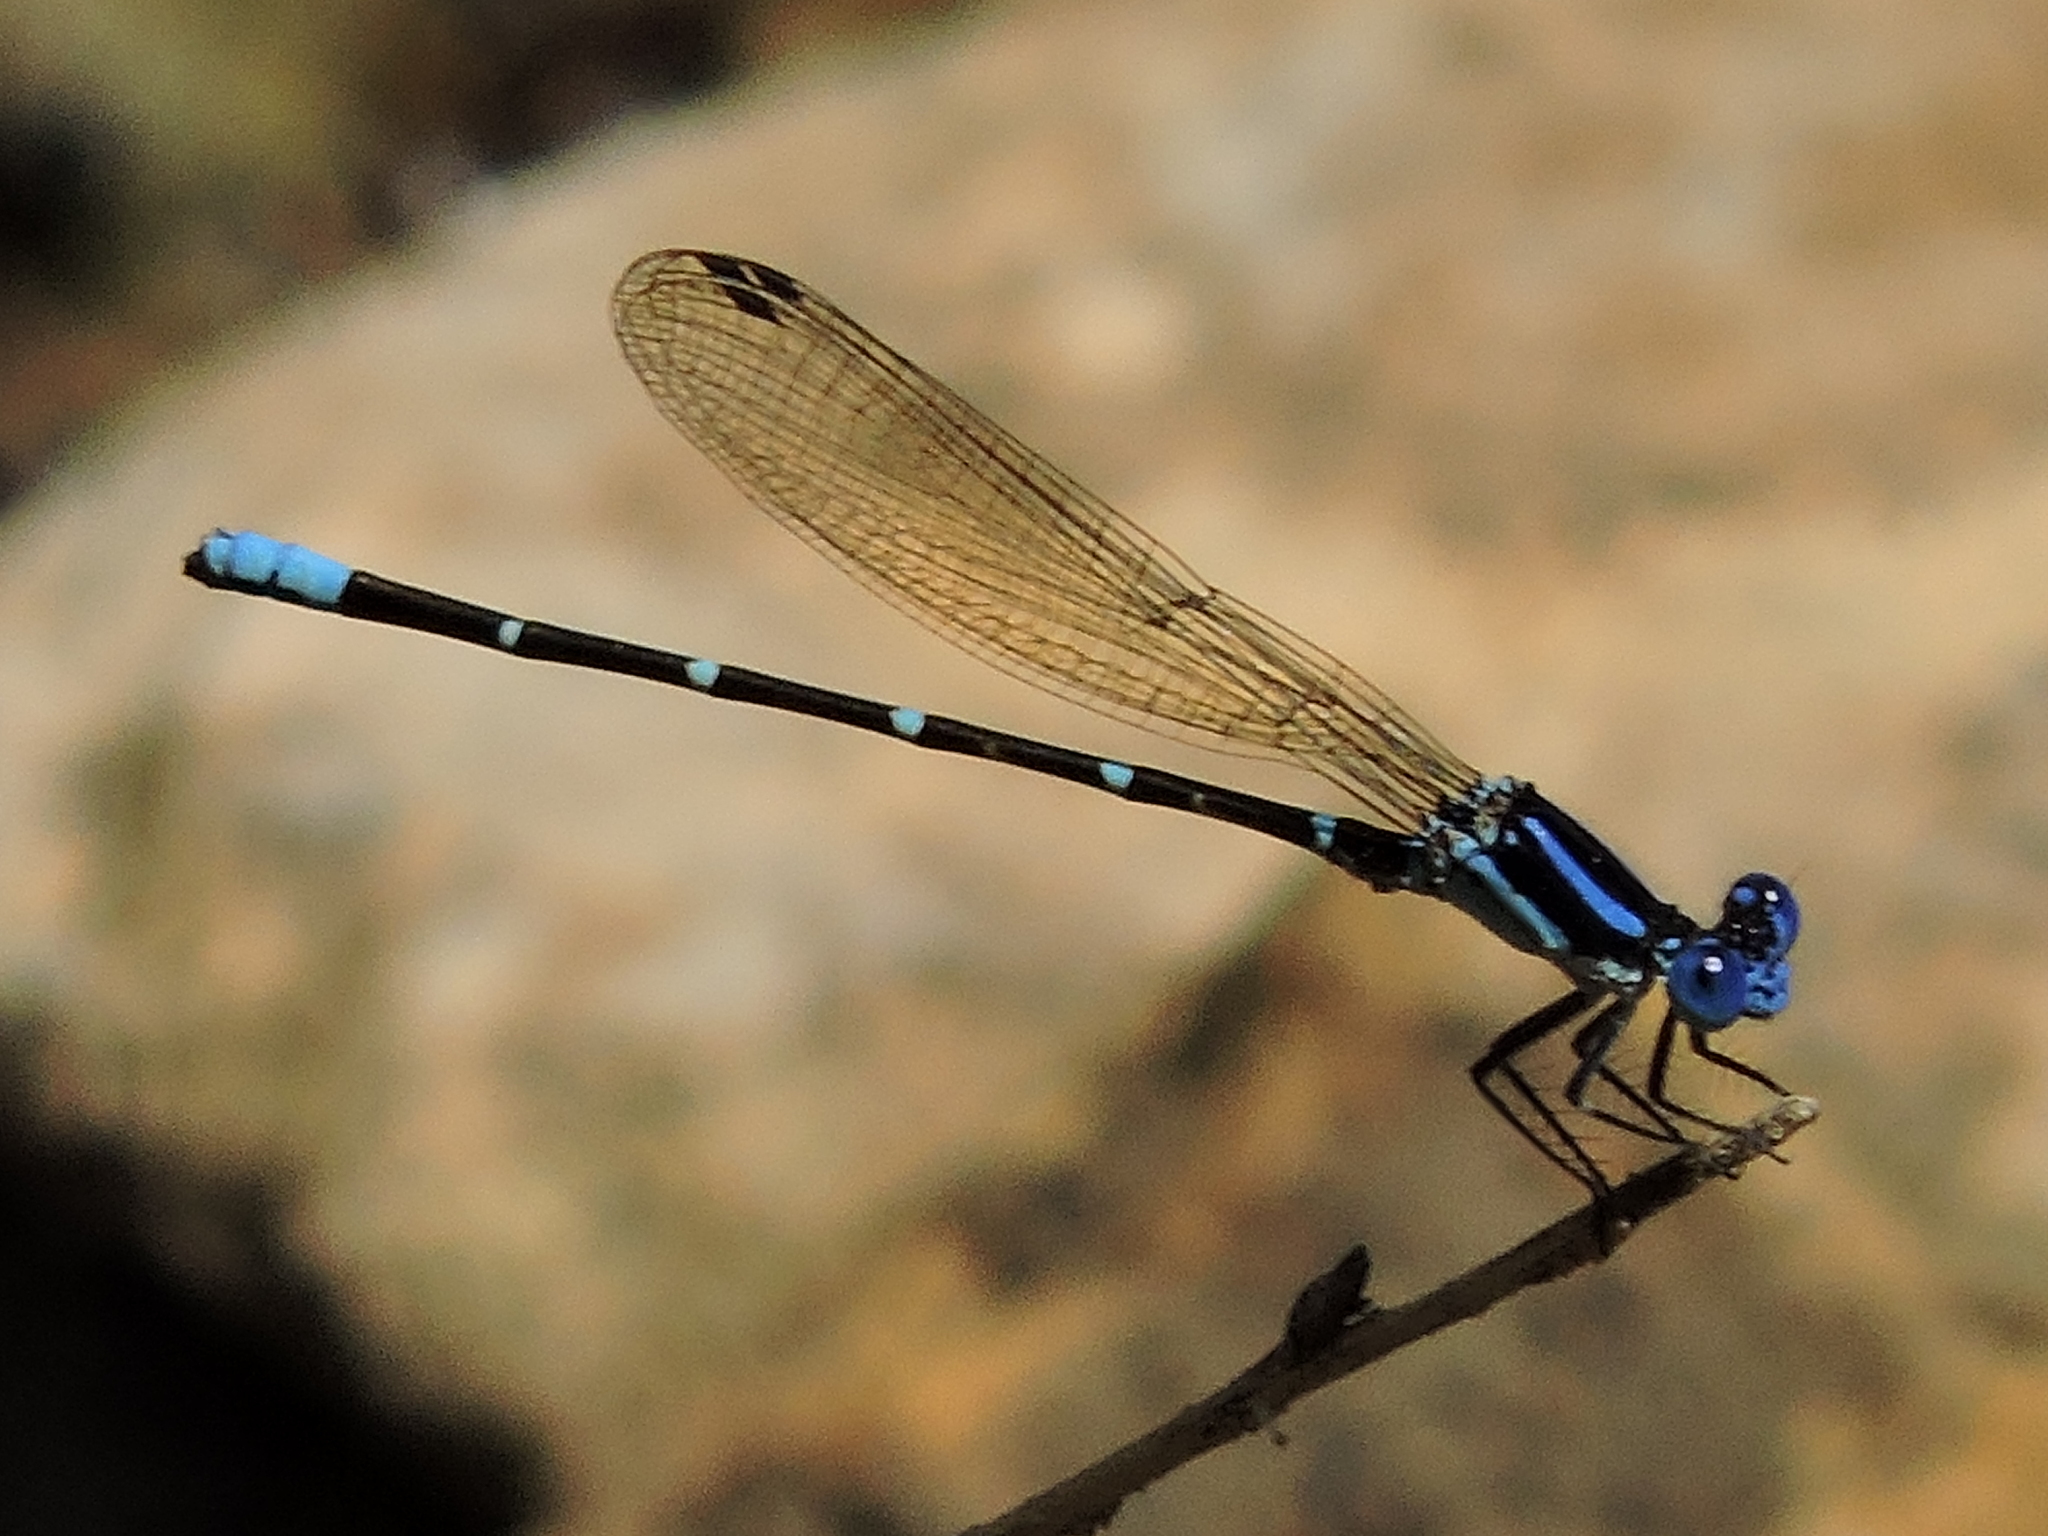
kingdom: Animalia
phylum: Arthropoda
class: Insecta
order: Odonata
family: Coenagrionidae
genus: Argia
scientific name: Argia sedula
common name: Blue-ringed dancer
